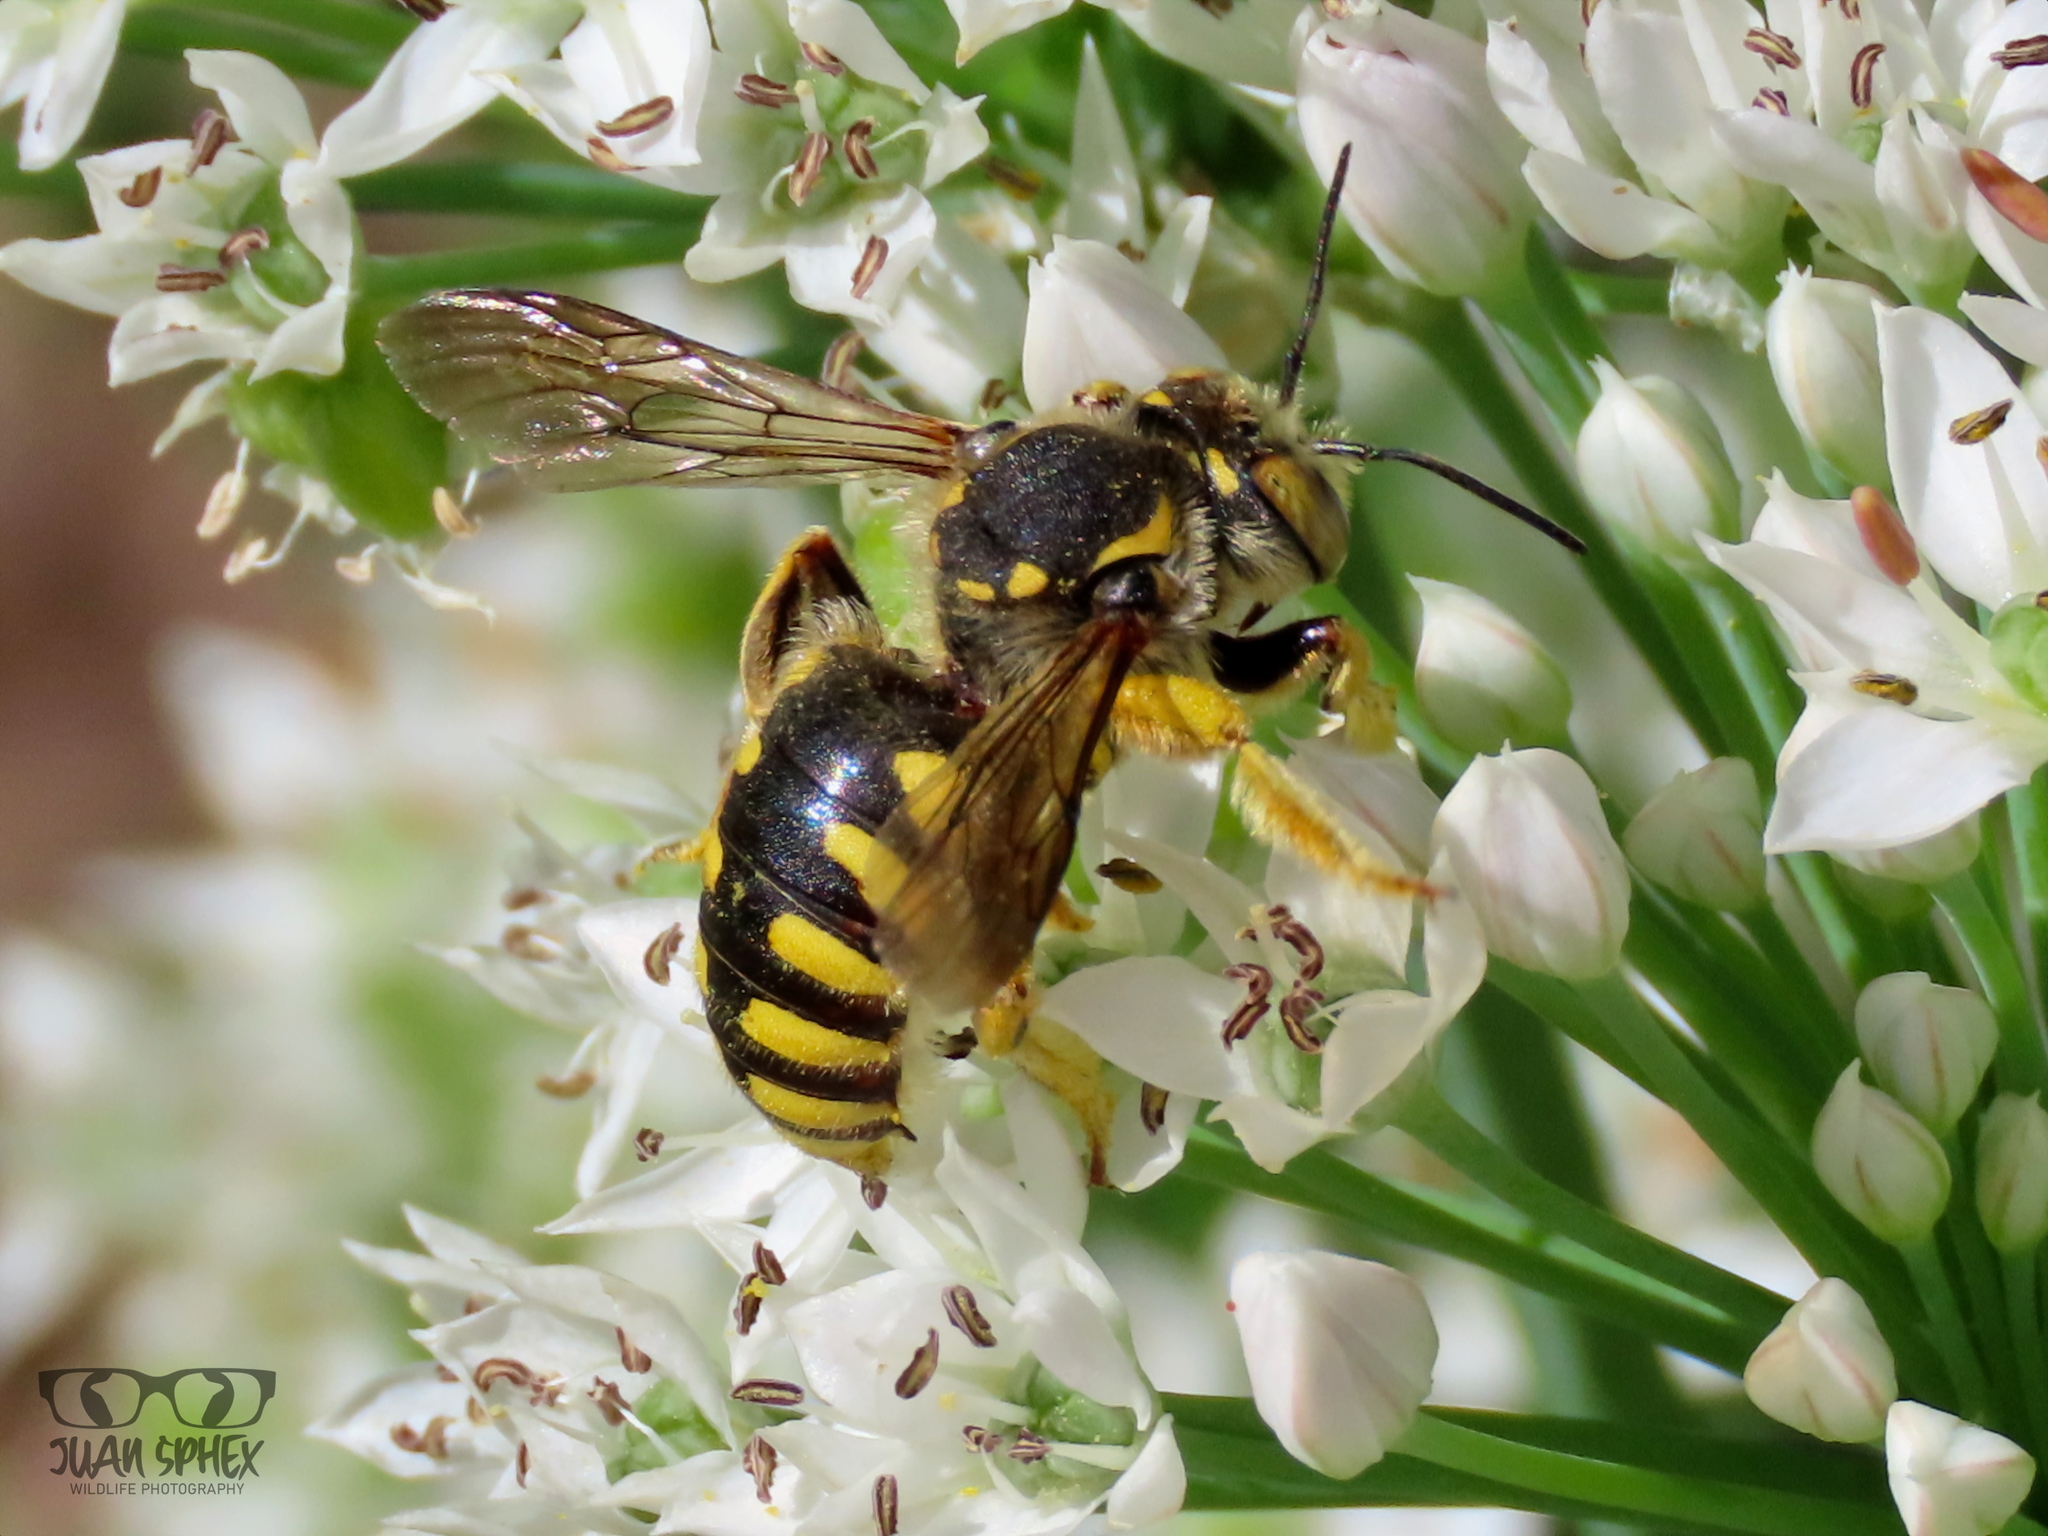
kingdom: Animalia
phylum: Arthropoda
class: Insecta
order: Hymenoptera
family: Megachilidae
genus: Anthidium
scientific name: Anthidium florentinum
